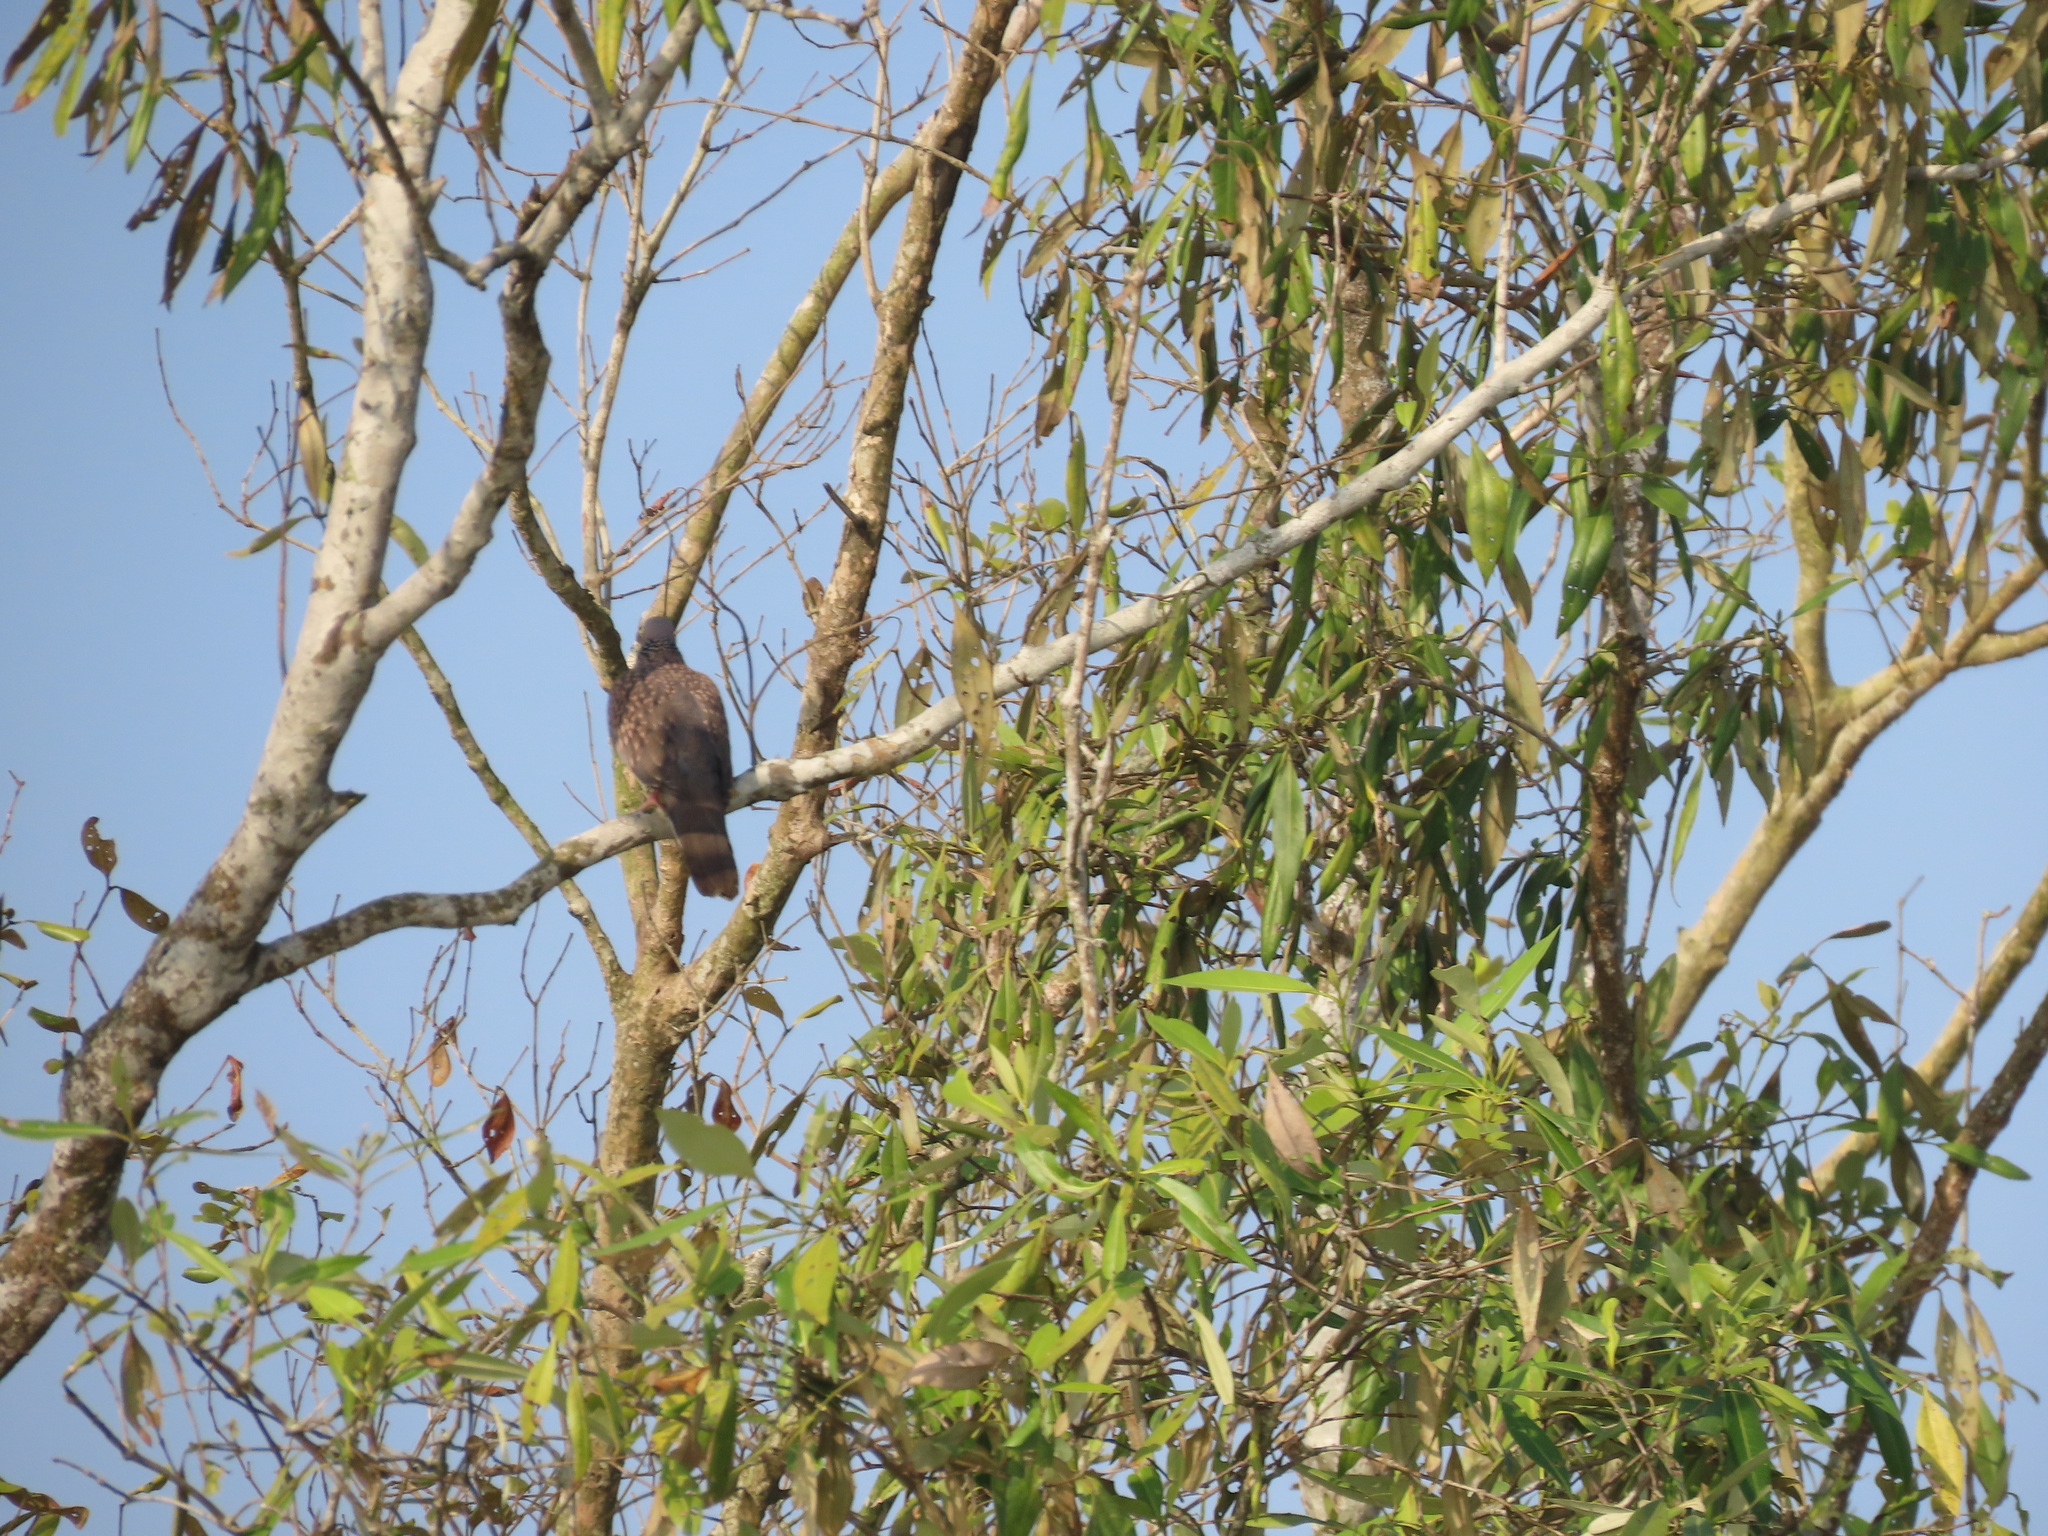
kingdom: Animalia
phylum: Chordata
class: Aves
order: Columbiformes
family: Columbidae
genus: Spilopelia
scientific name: Spilopelia chinensis
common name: Spotted dove
